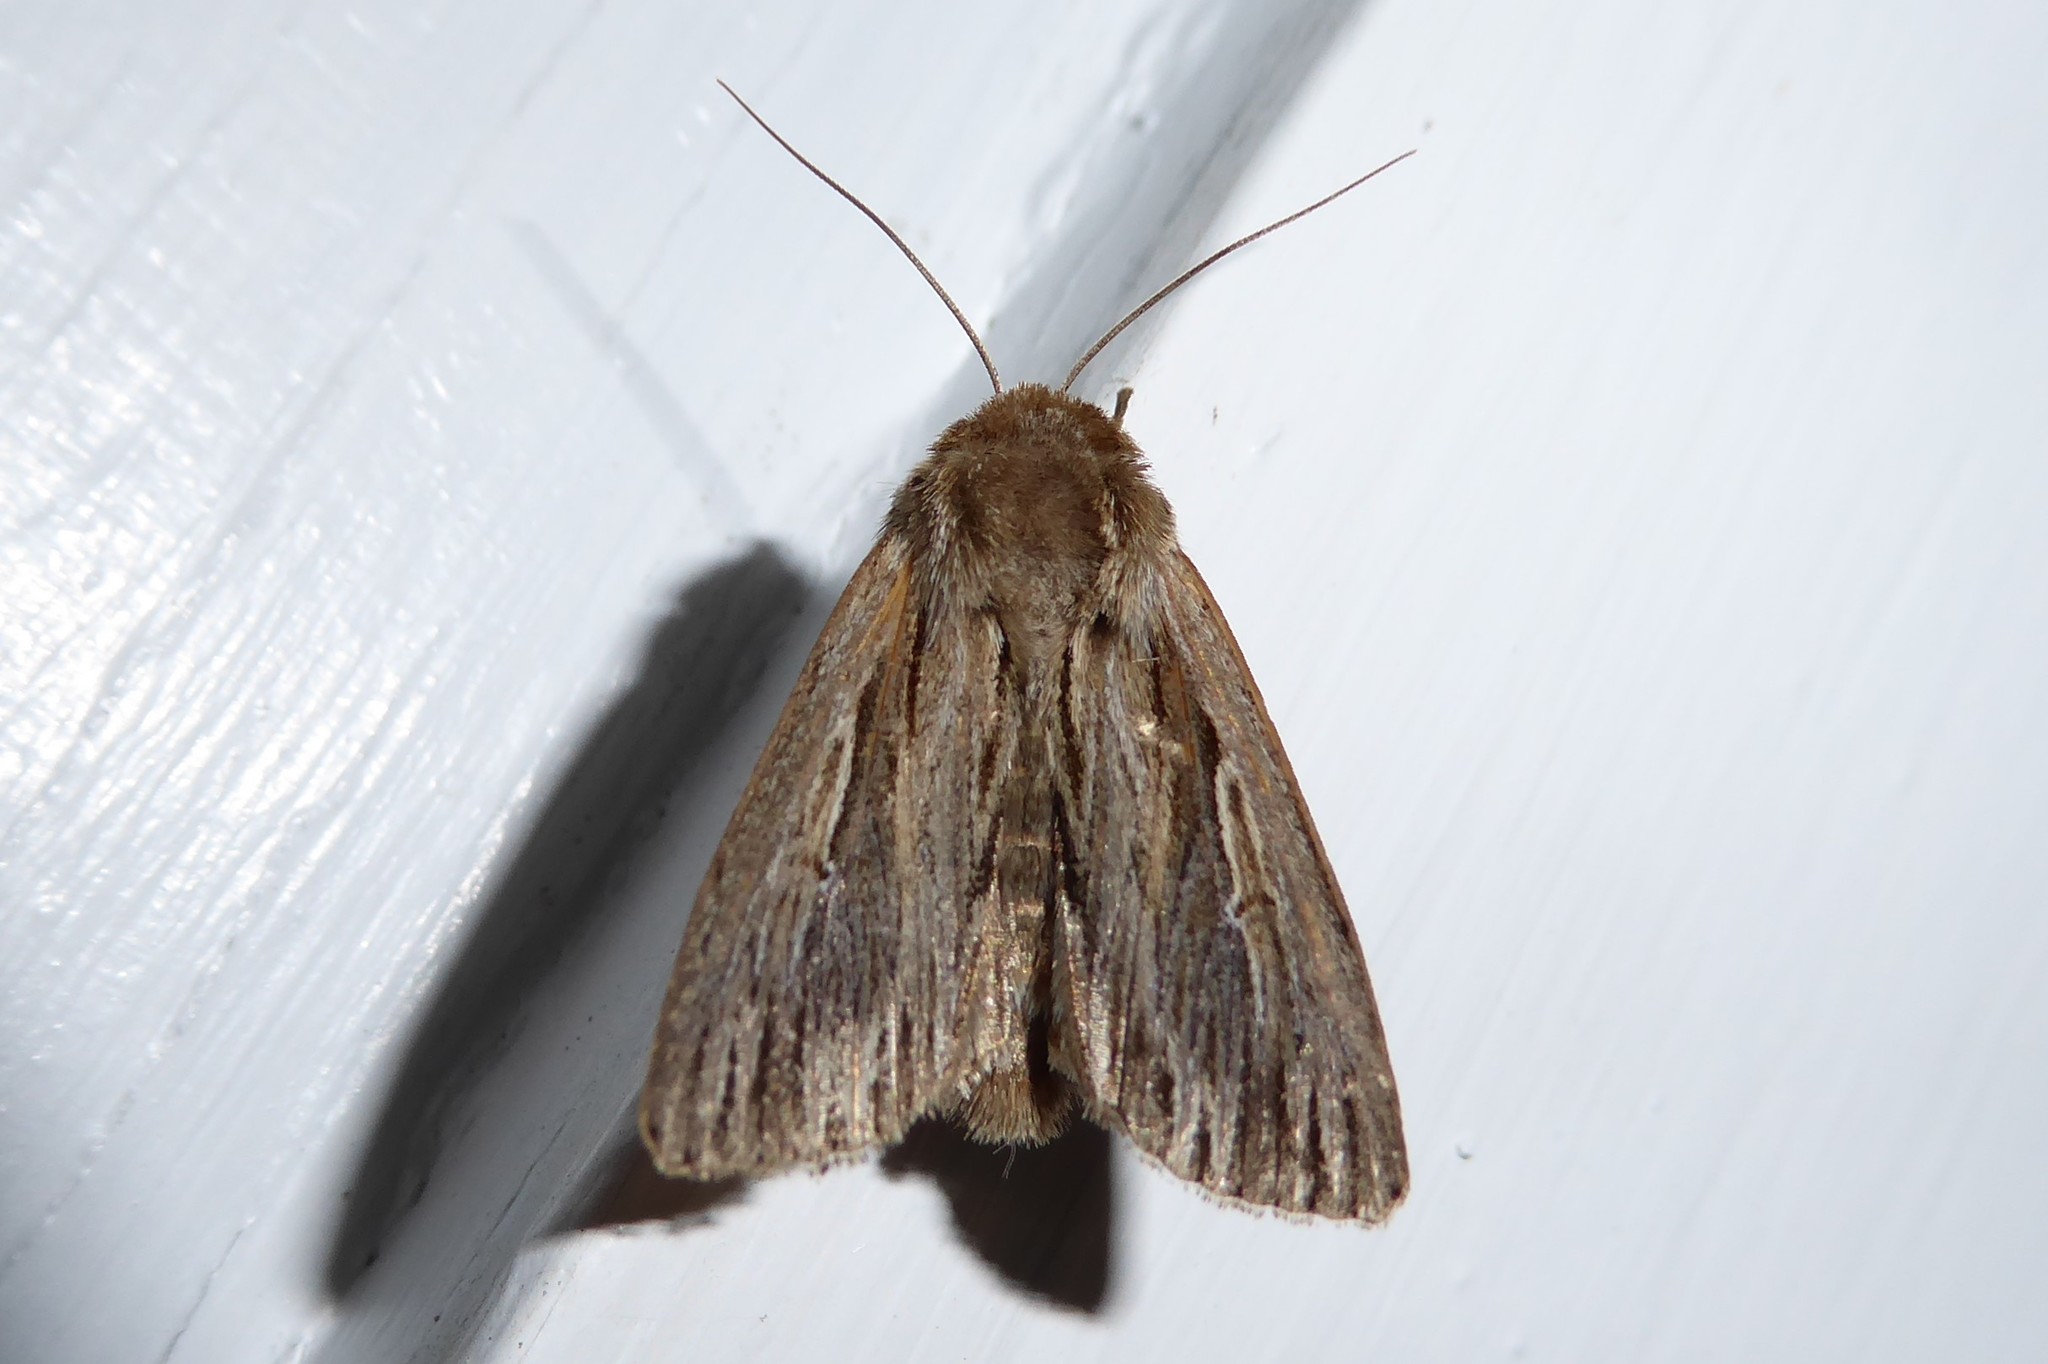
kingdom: Animalia
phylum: Arthropoda
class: Insecta
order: Lepidoptera
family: Noctuidae
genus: Persectania
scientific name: Persectania aversa
